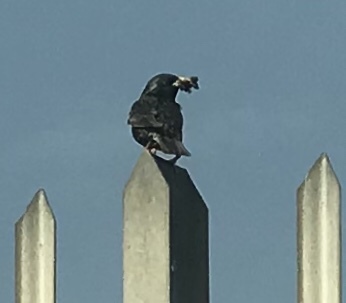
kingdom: Animalia
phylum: Chordata
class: Aves
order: Passeriformes
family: Sturnidae
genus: Sturnus
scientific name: Sturnus vulgaris
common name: Common starling
